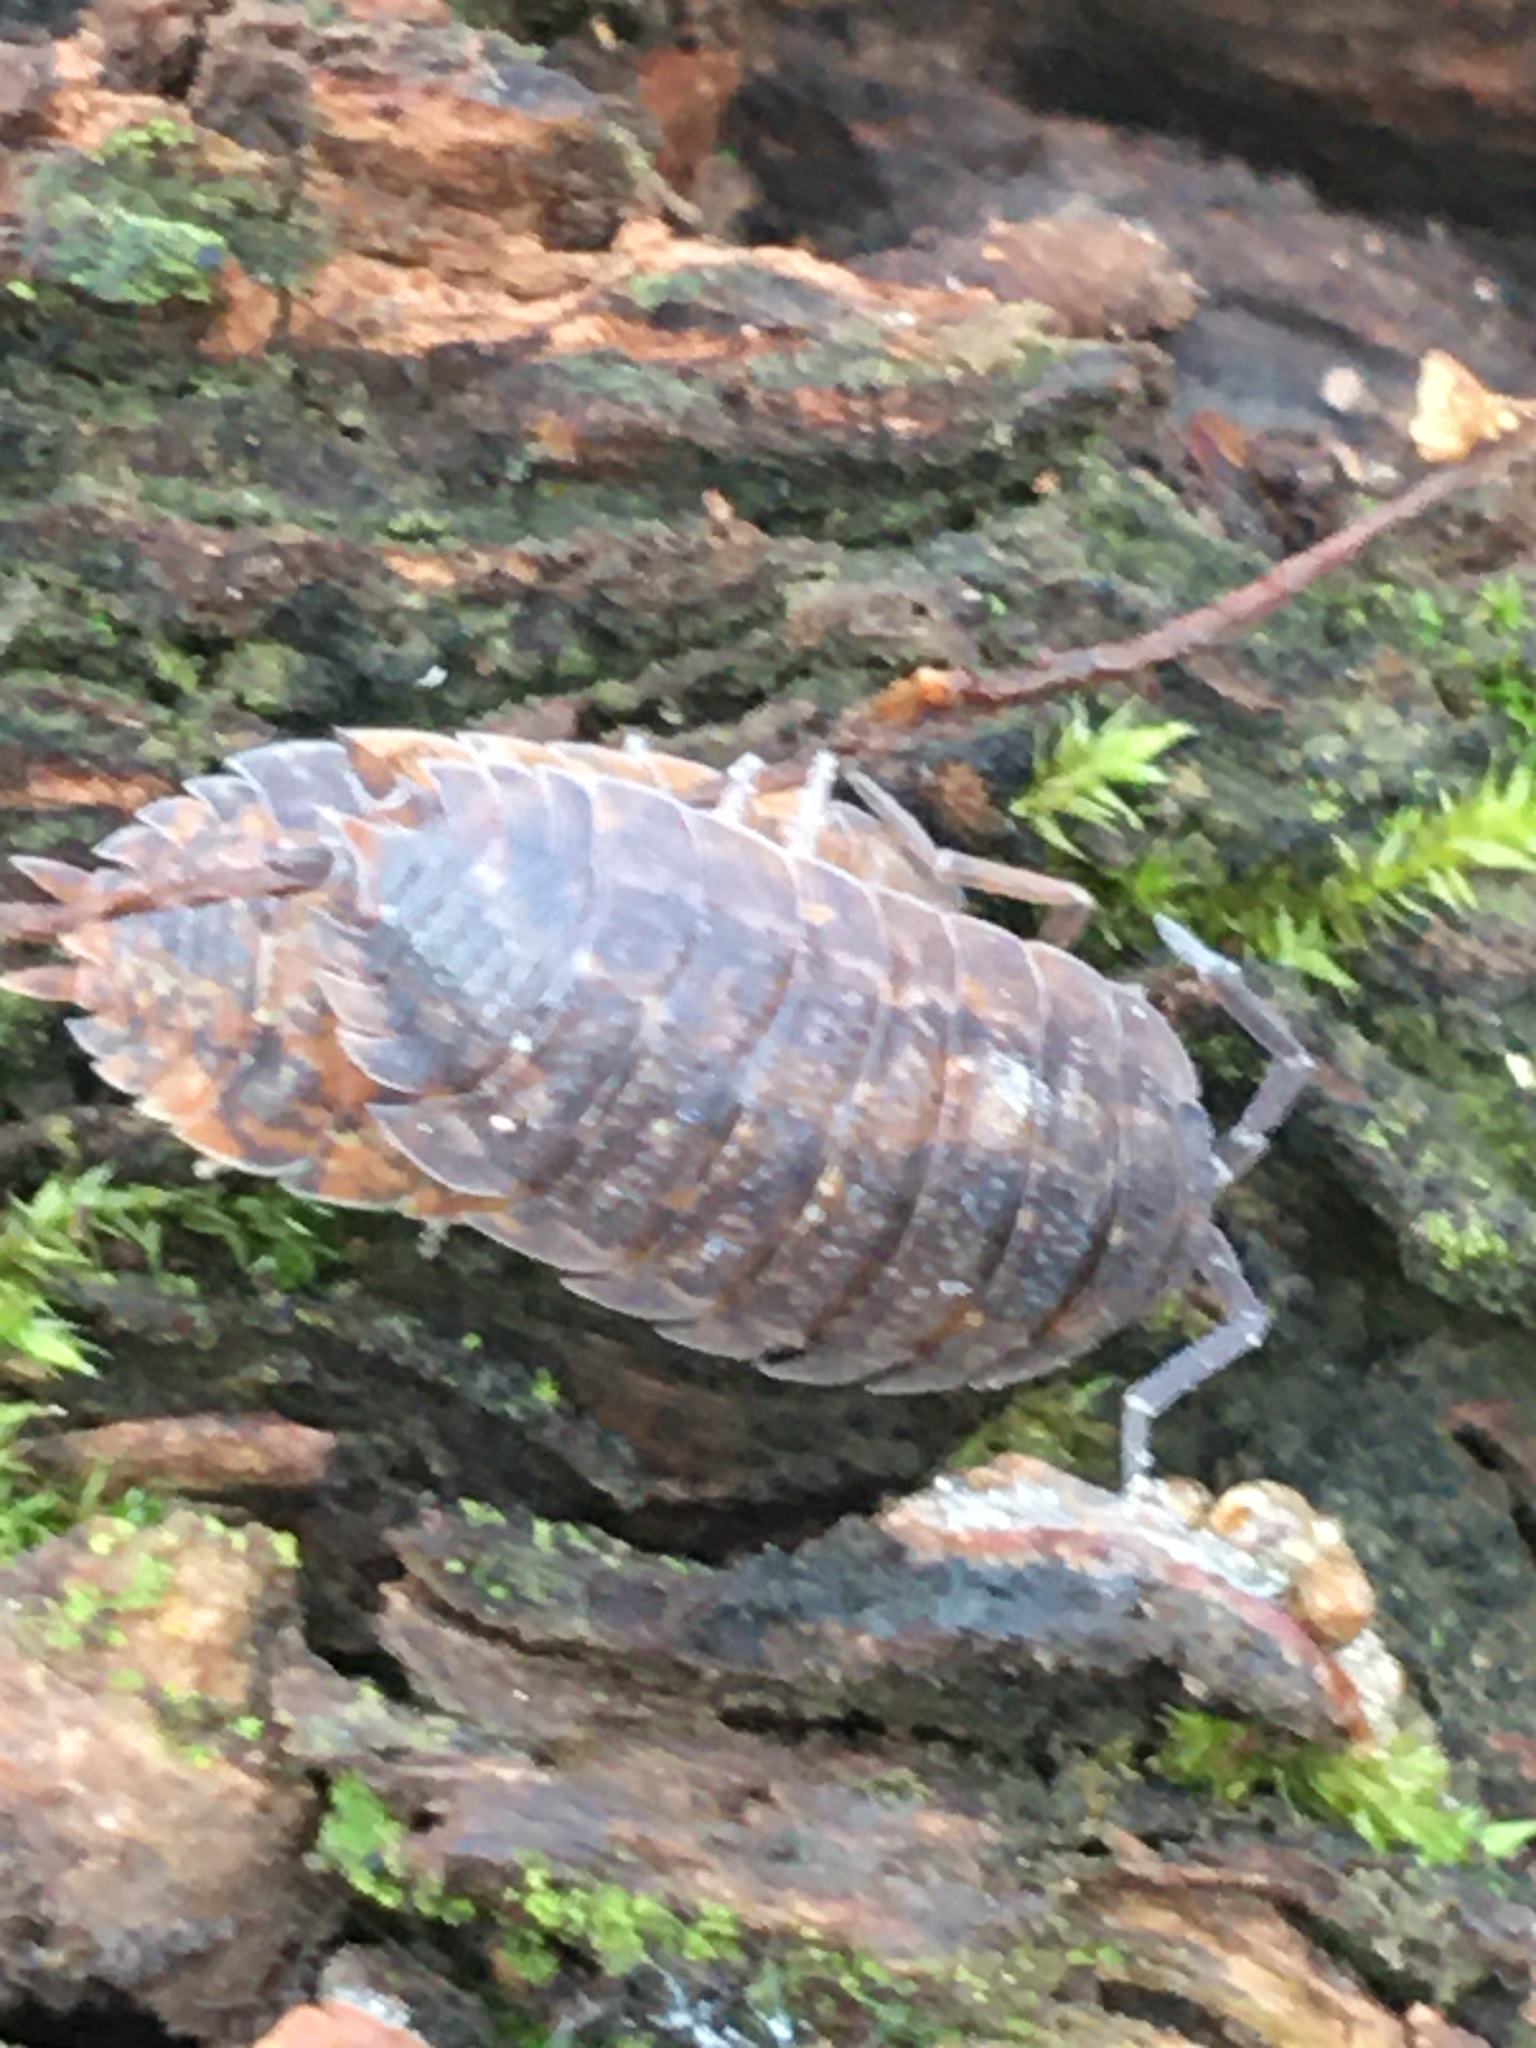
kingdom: Animalia
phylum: Arthropoda
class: Malacostraca
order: Isopoda
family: Porcellionidae
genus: Porcellio
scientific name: Porcellio scaber
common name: Common rough woodlouse
